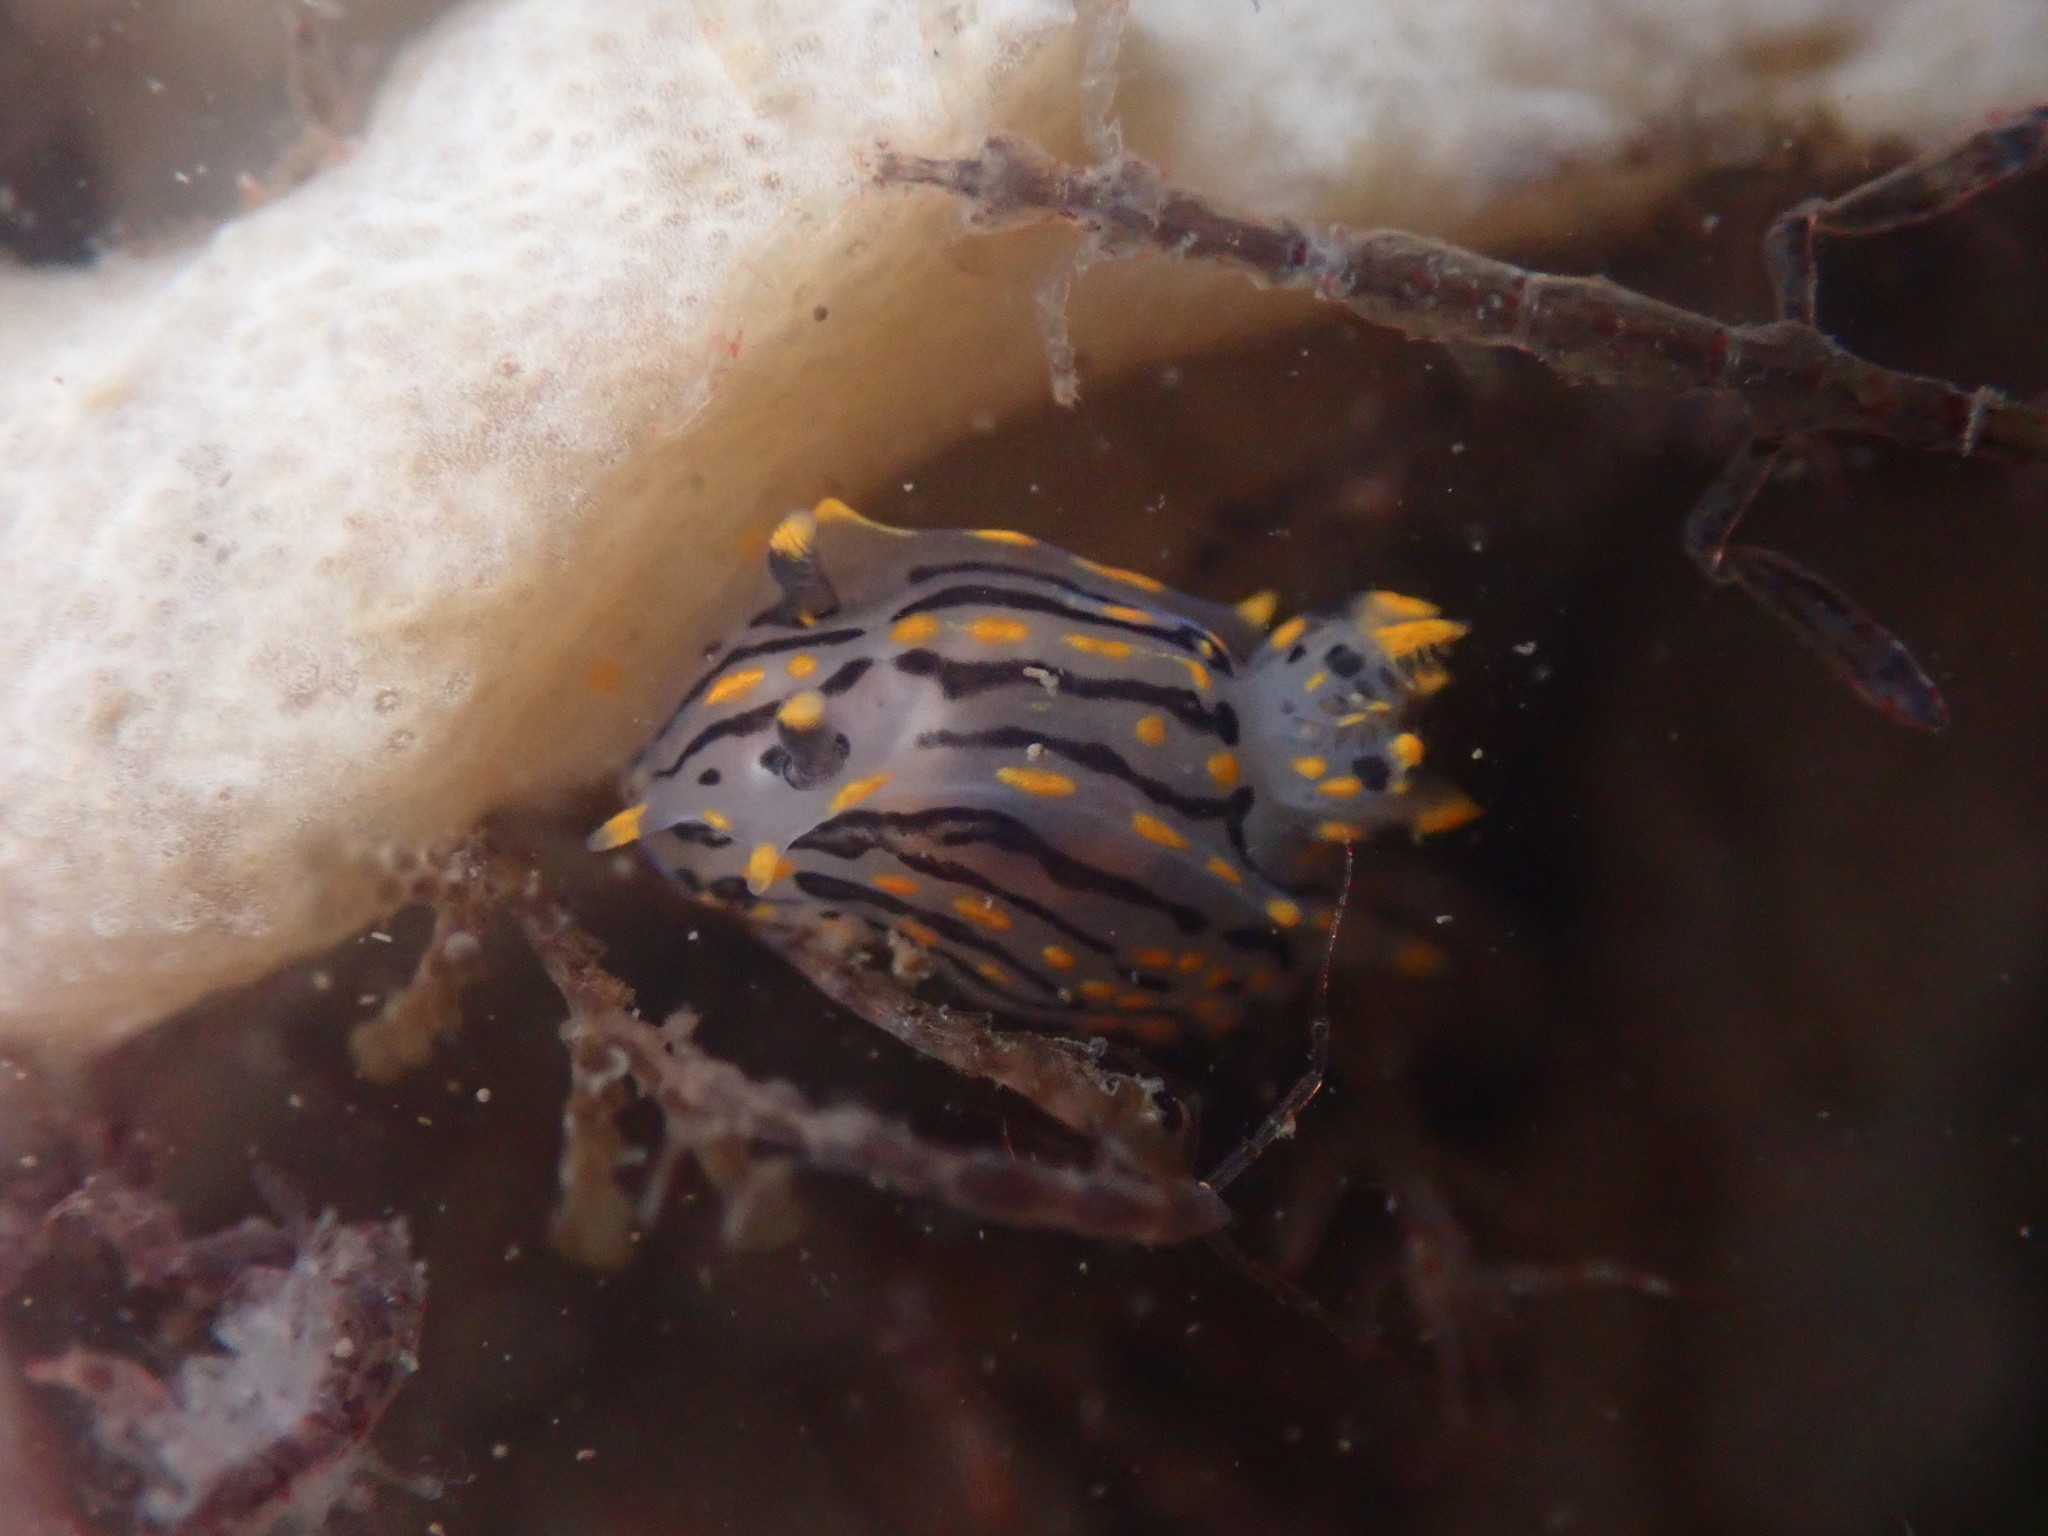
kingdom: Animalia
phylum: Mollusca
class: Gastropoda
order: Nudibranchia
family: Polyceridae
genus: Polycera
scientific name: Polycera atra
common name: Orange-spike polycera
